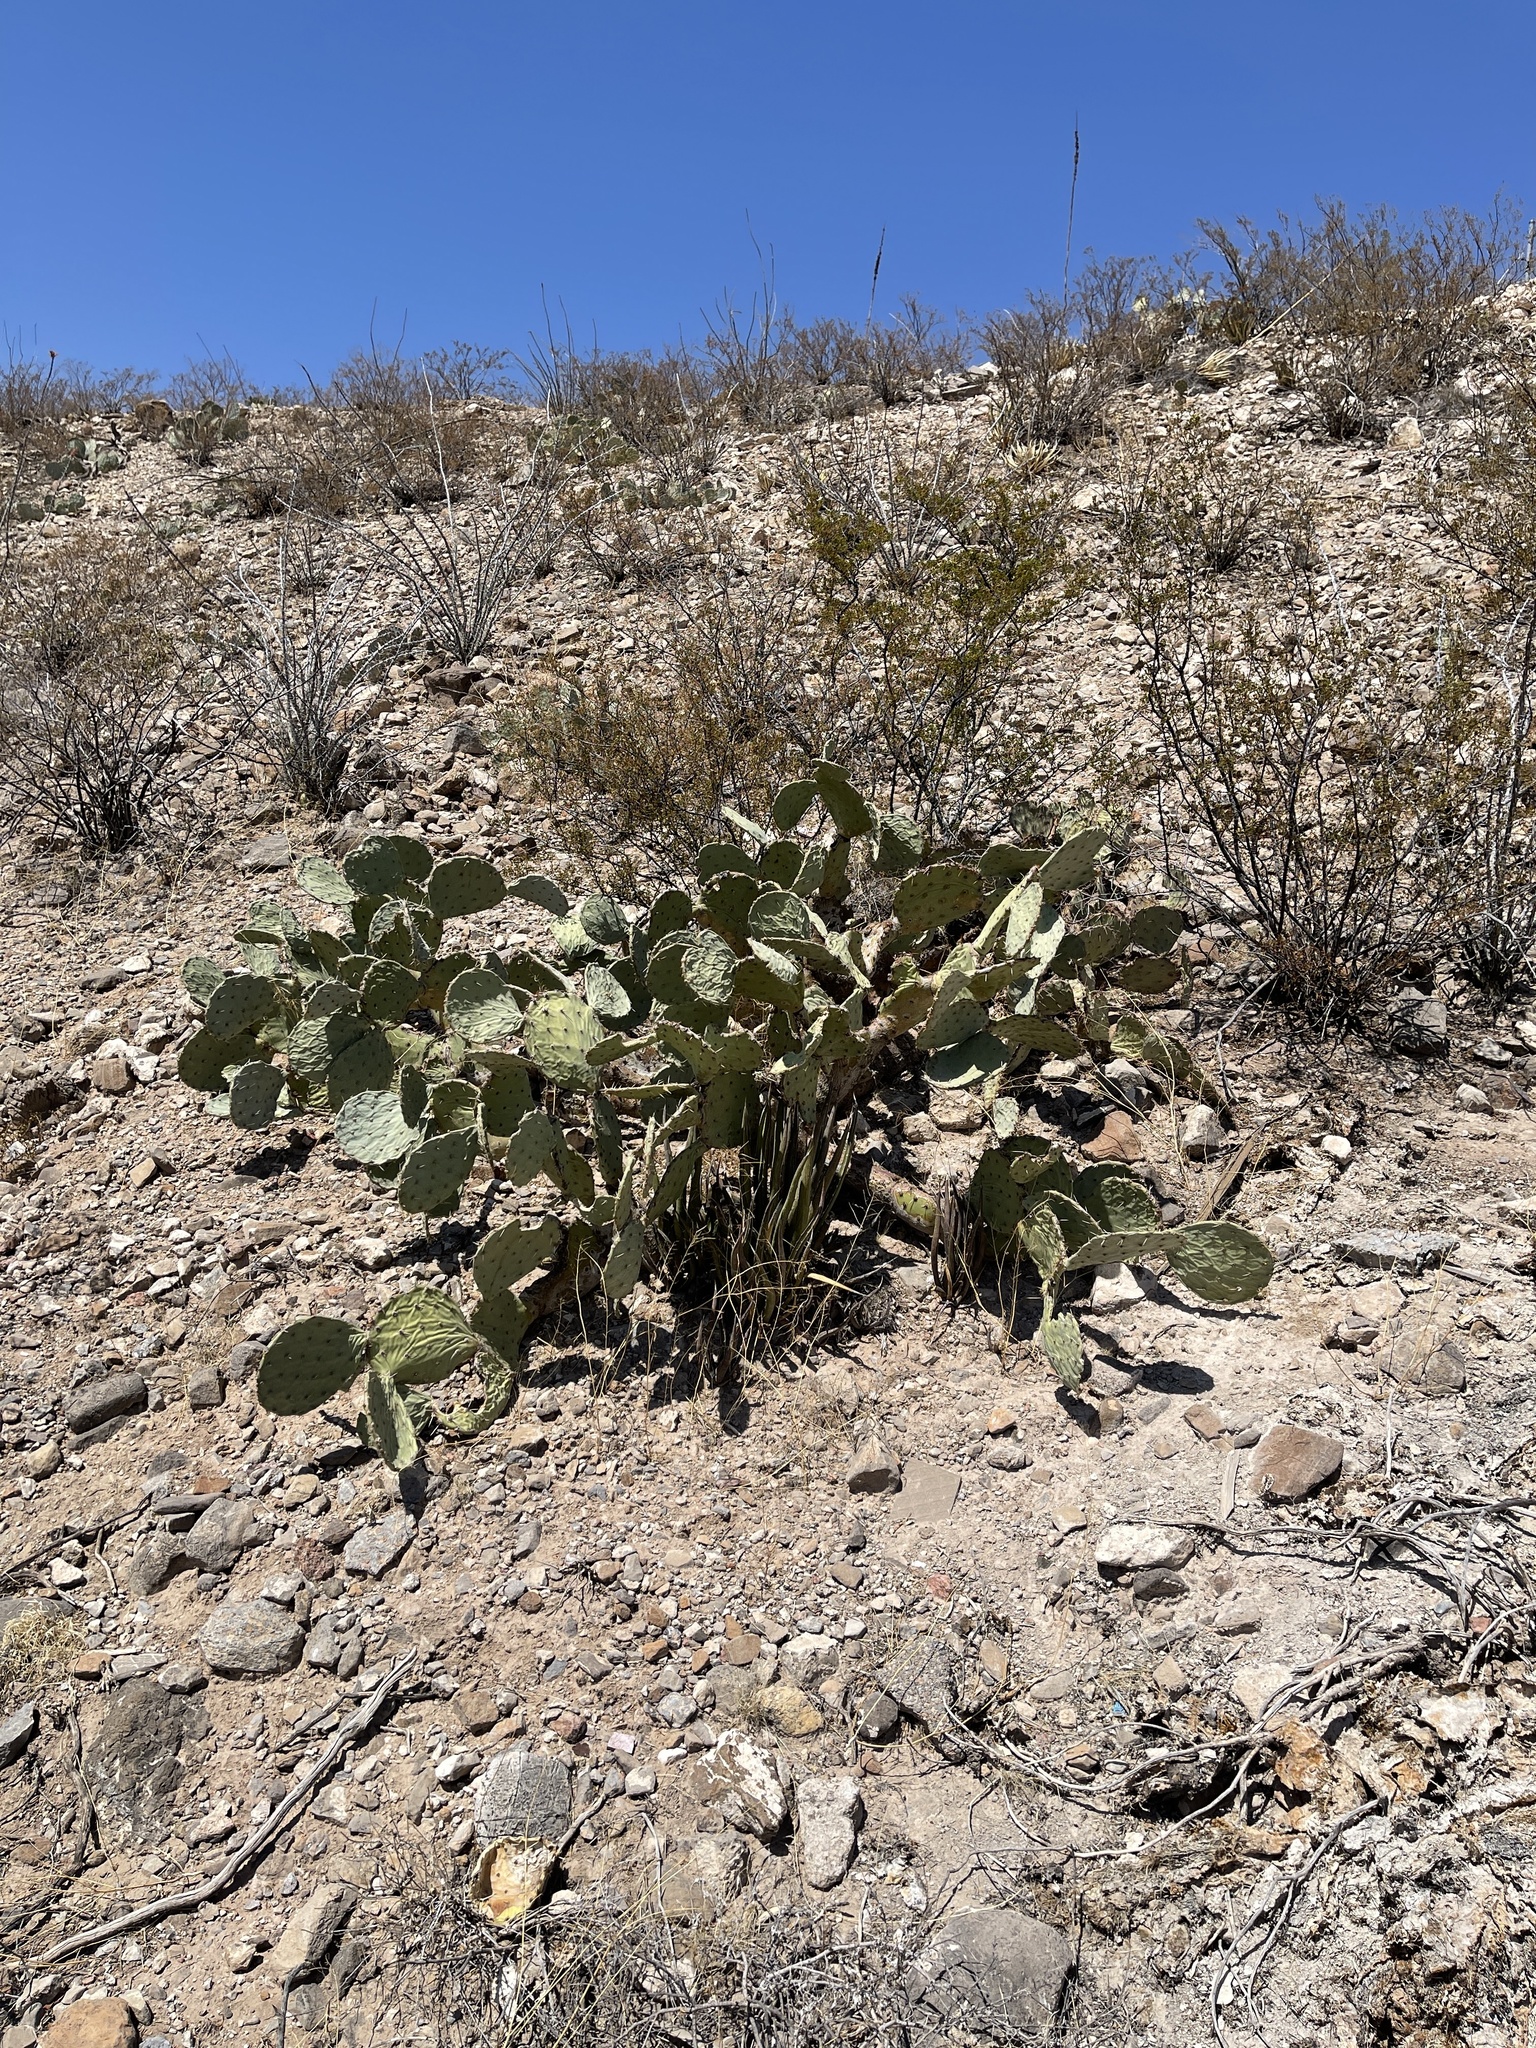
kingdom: Plantae
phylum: Tracheophyta
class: Magnoliopsida
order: Caryophyllales
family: Cactaceae
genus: Opuntia
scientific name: Opuntia engelmannii
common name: Cactus-apple
